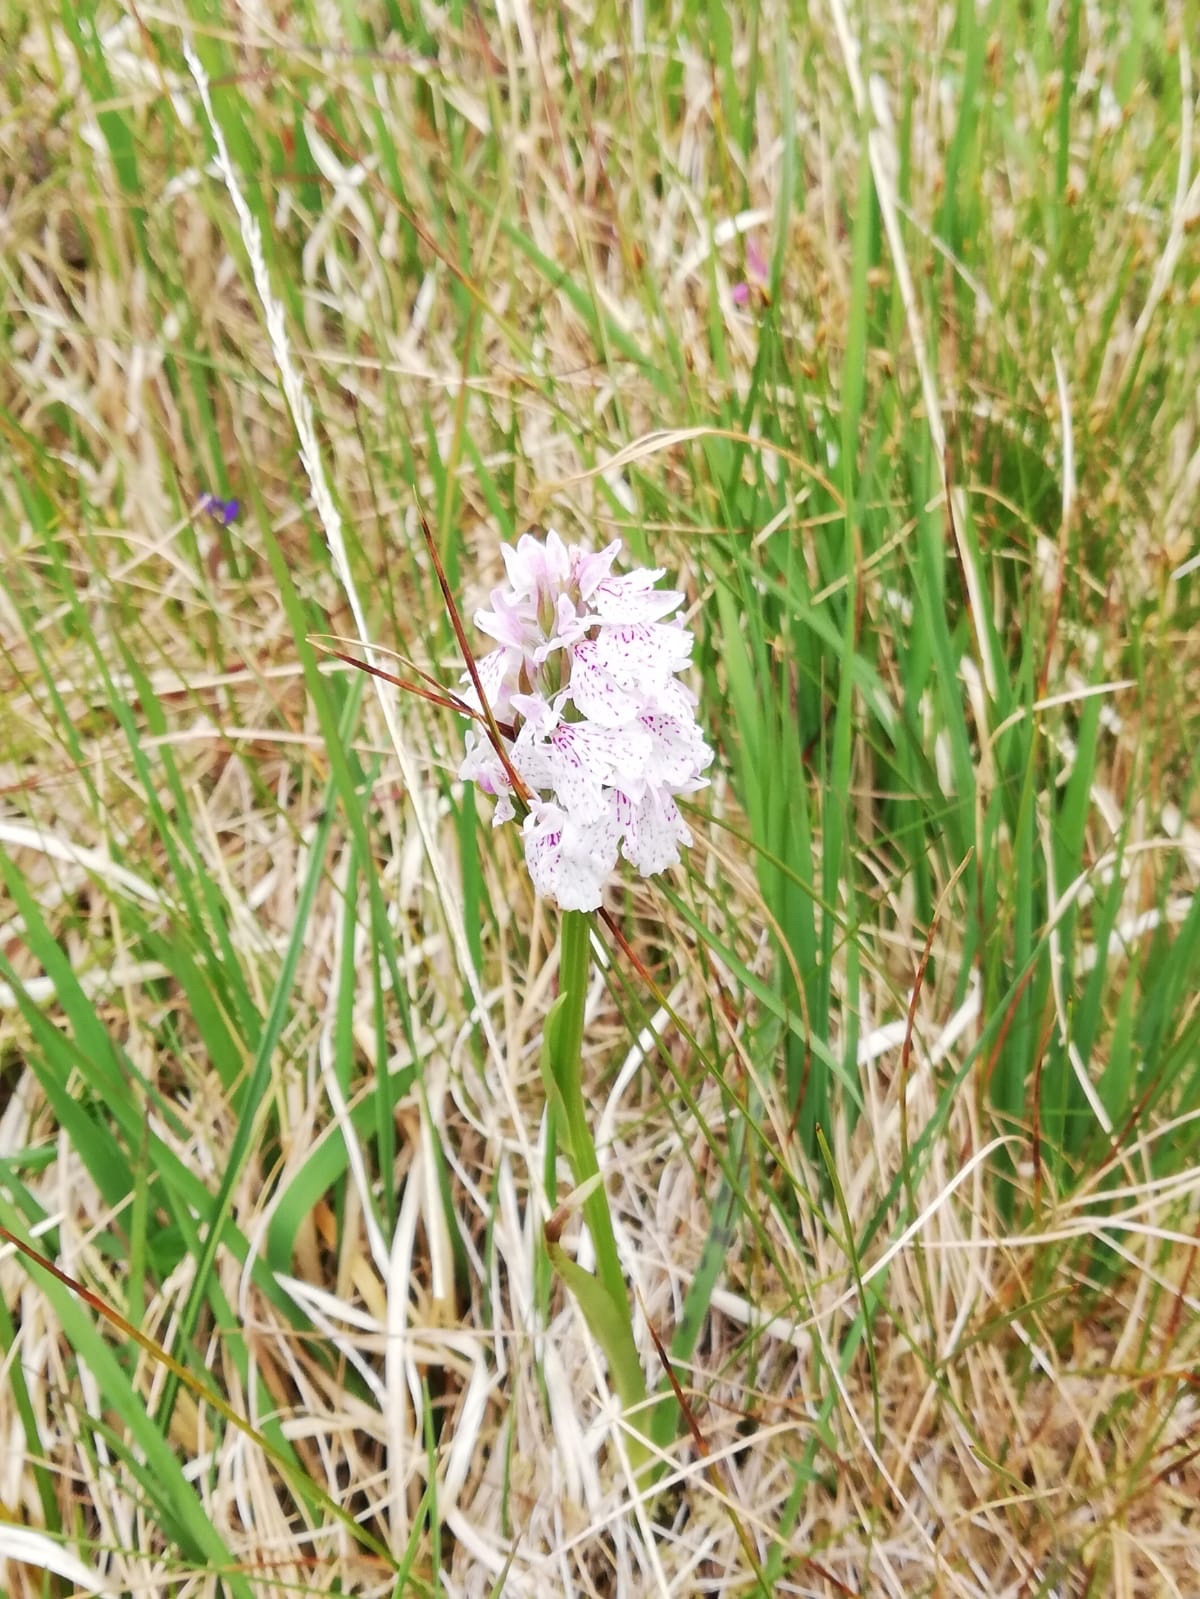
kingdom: Plantae
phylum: Tracheophyta
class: Liliopsida
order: Asparagales
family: Orchidaceae
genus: Dactylorhiza
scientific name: Dactylorhiza maculata
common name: Heath spotted-orchid
